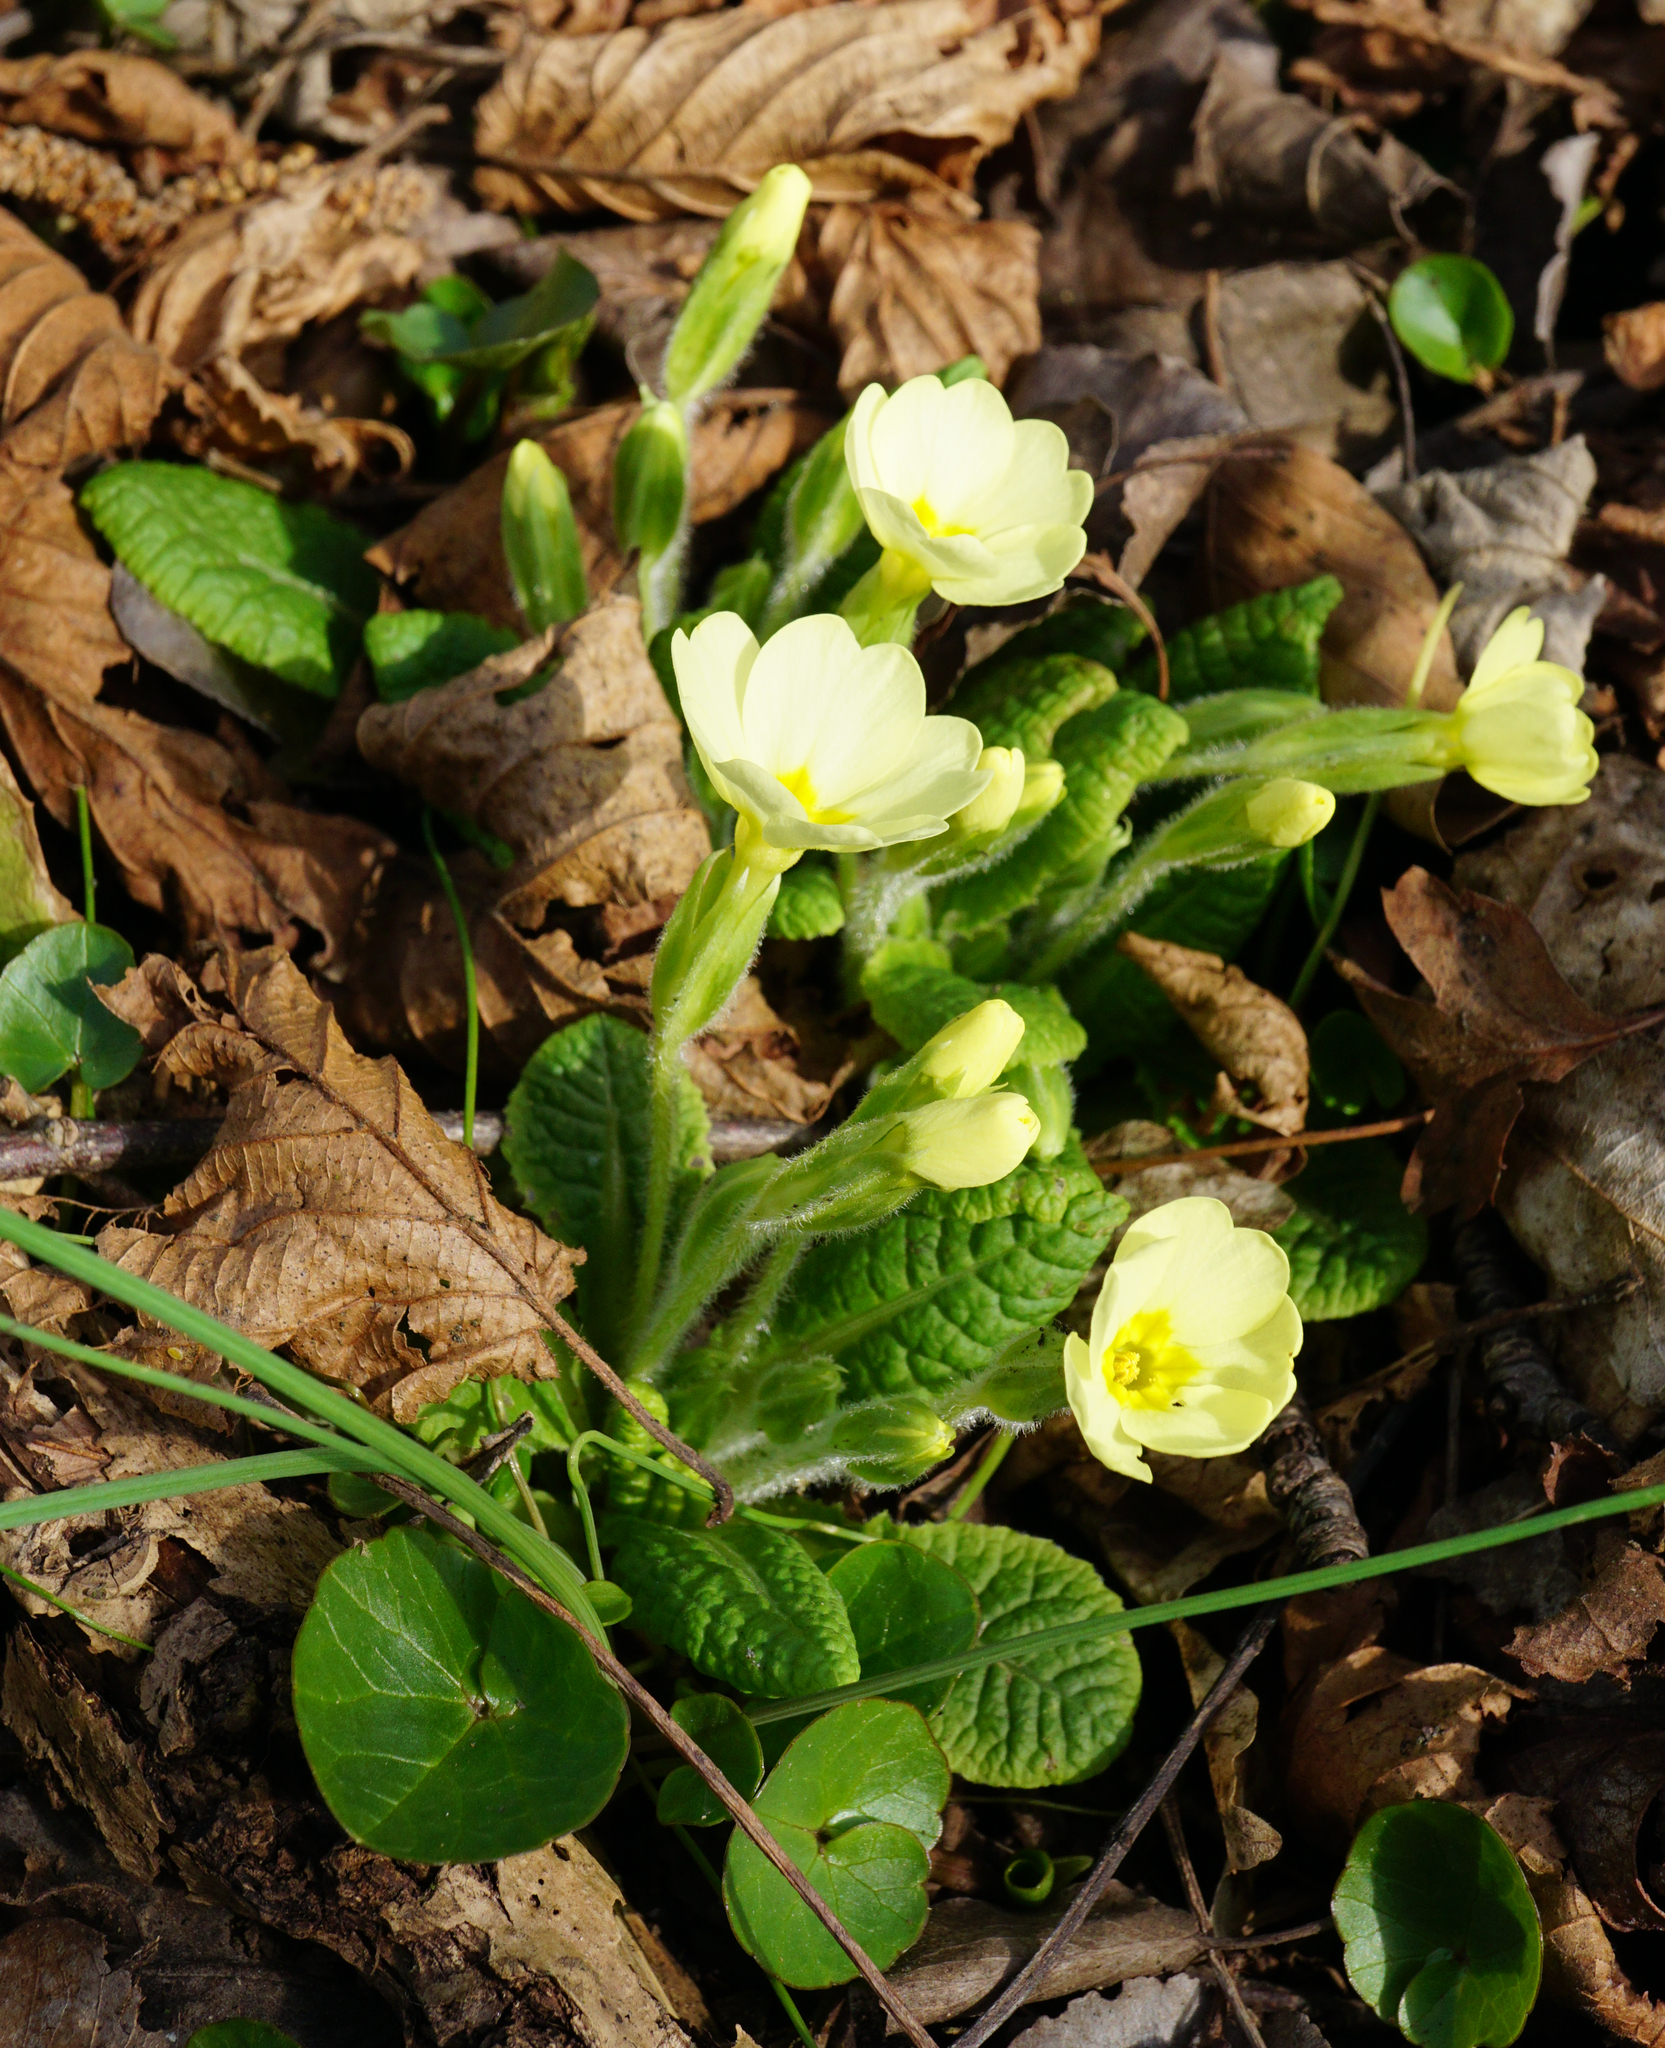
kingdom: Plantae
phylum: Tracheophyta
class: Magnoliopsida
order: Ericales
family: Primulaceae
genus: Primula
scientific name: Primula vulgaris
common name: Primrose
